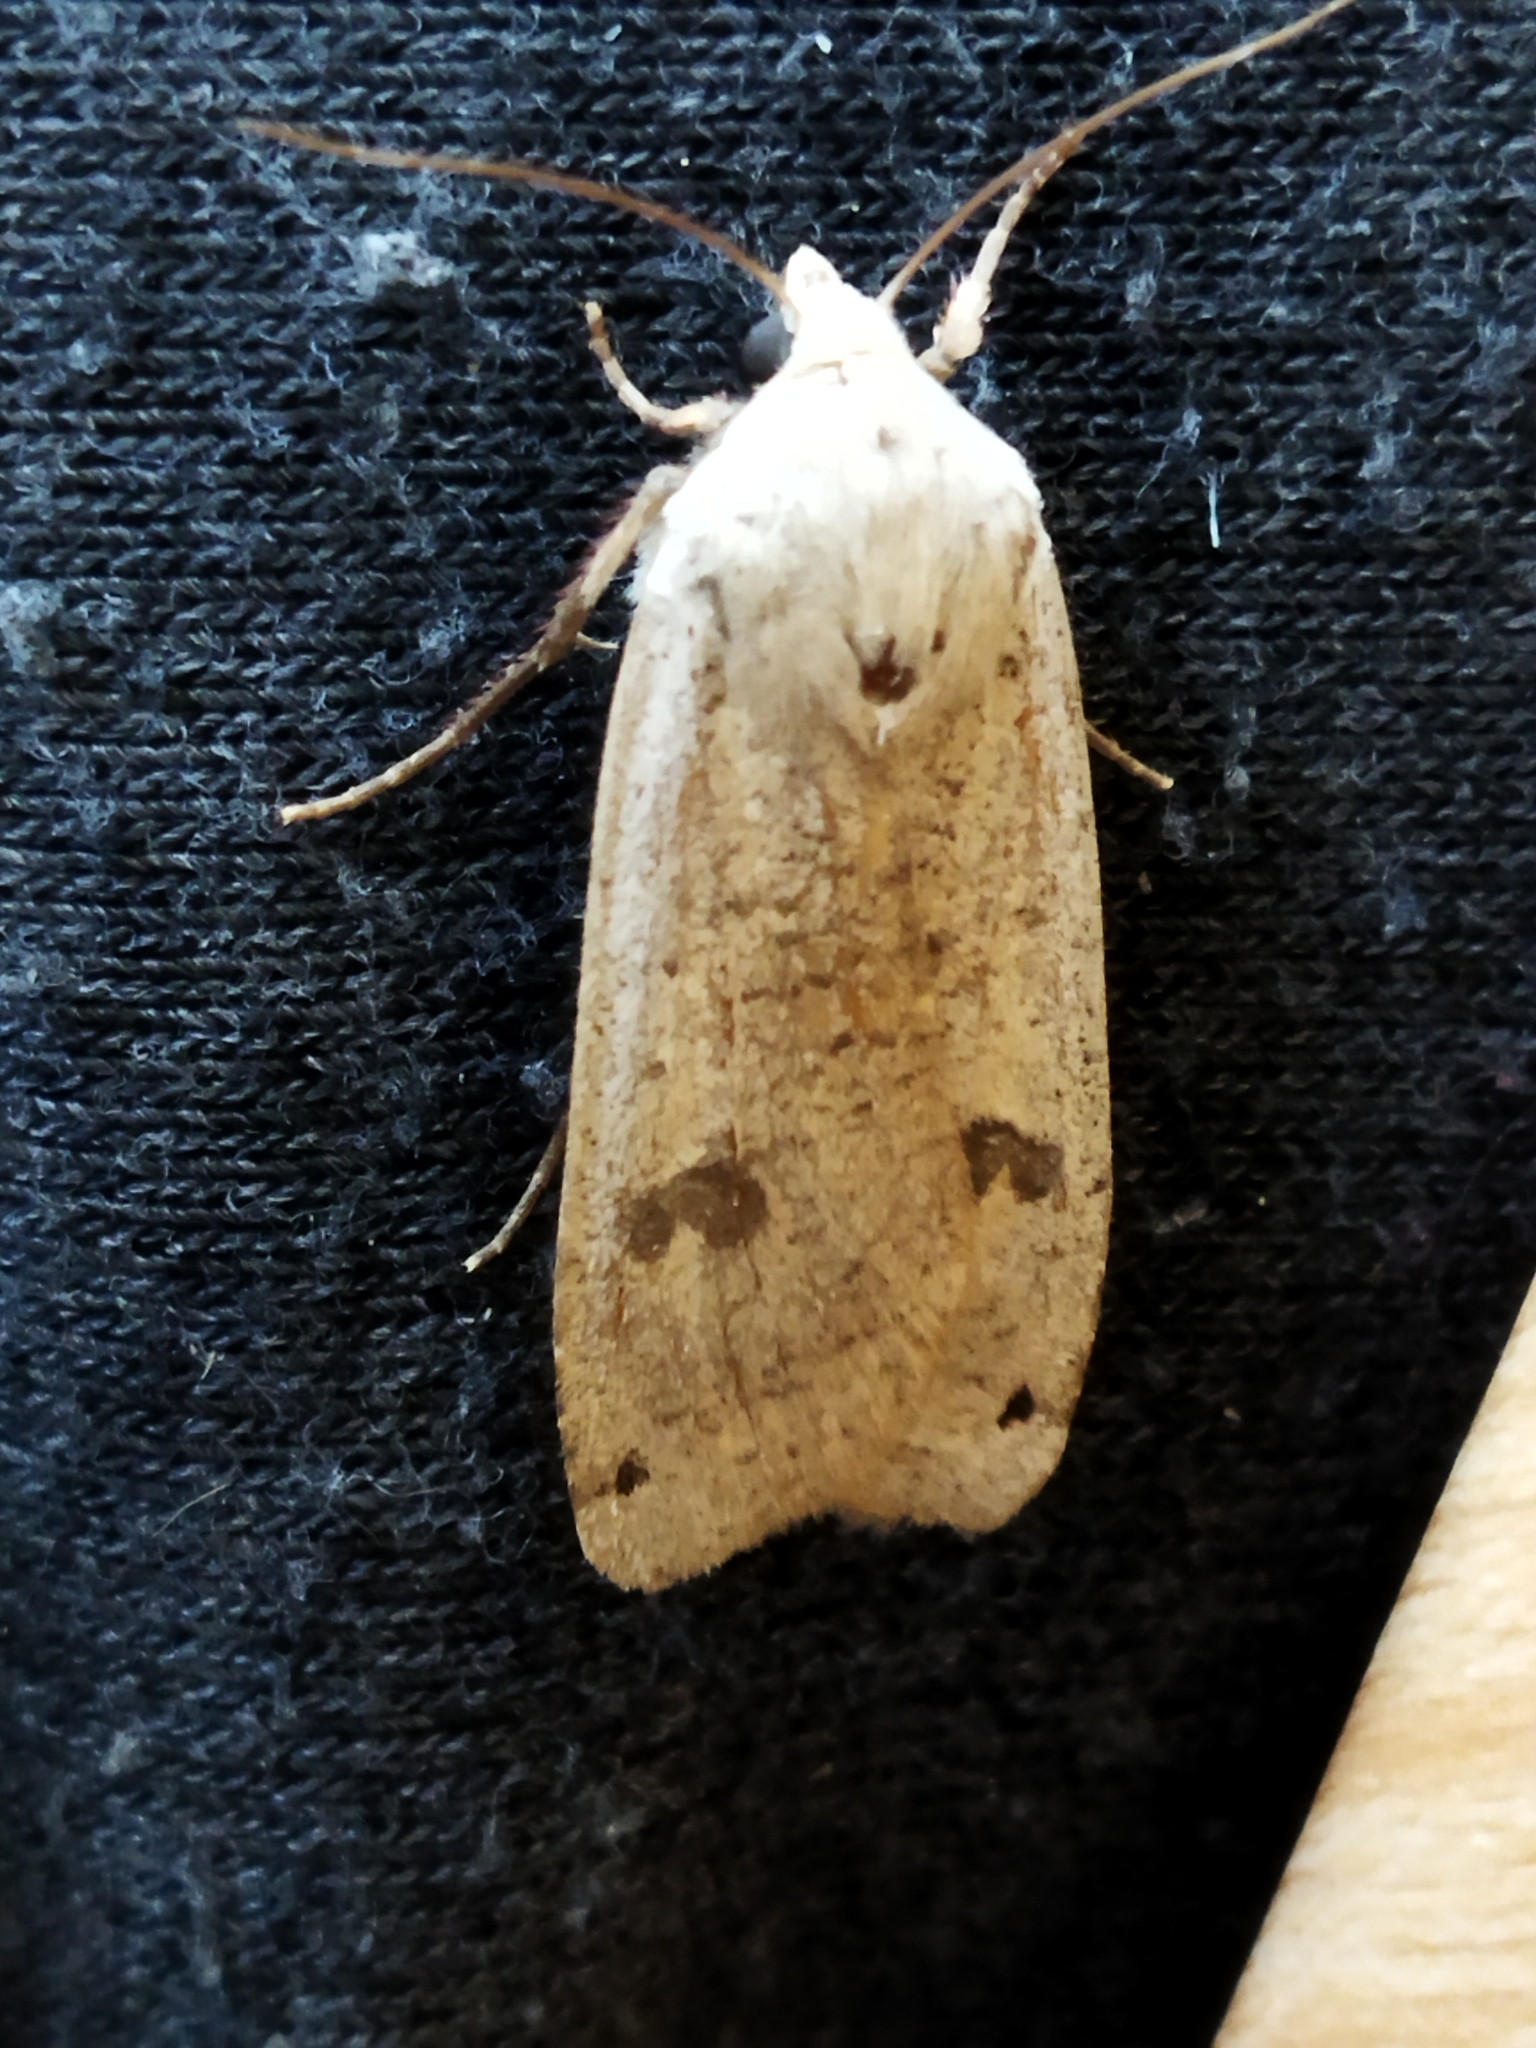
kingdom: Animalia
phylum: Arthropoda
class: Insecta
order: Lepidoptera
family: Noctuidae
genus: Noctua
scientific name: Noctua pronuba
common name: Large yellow underwing
